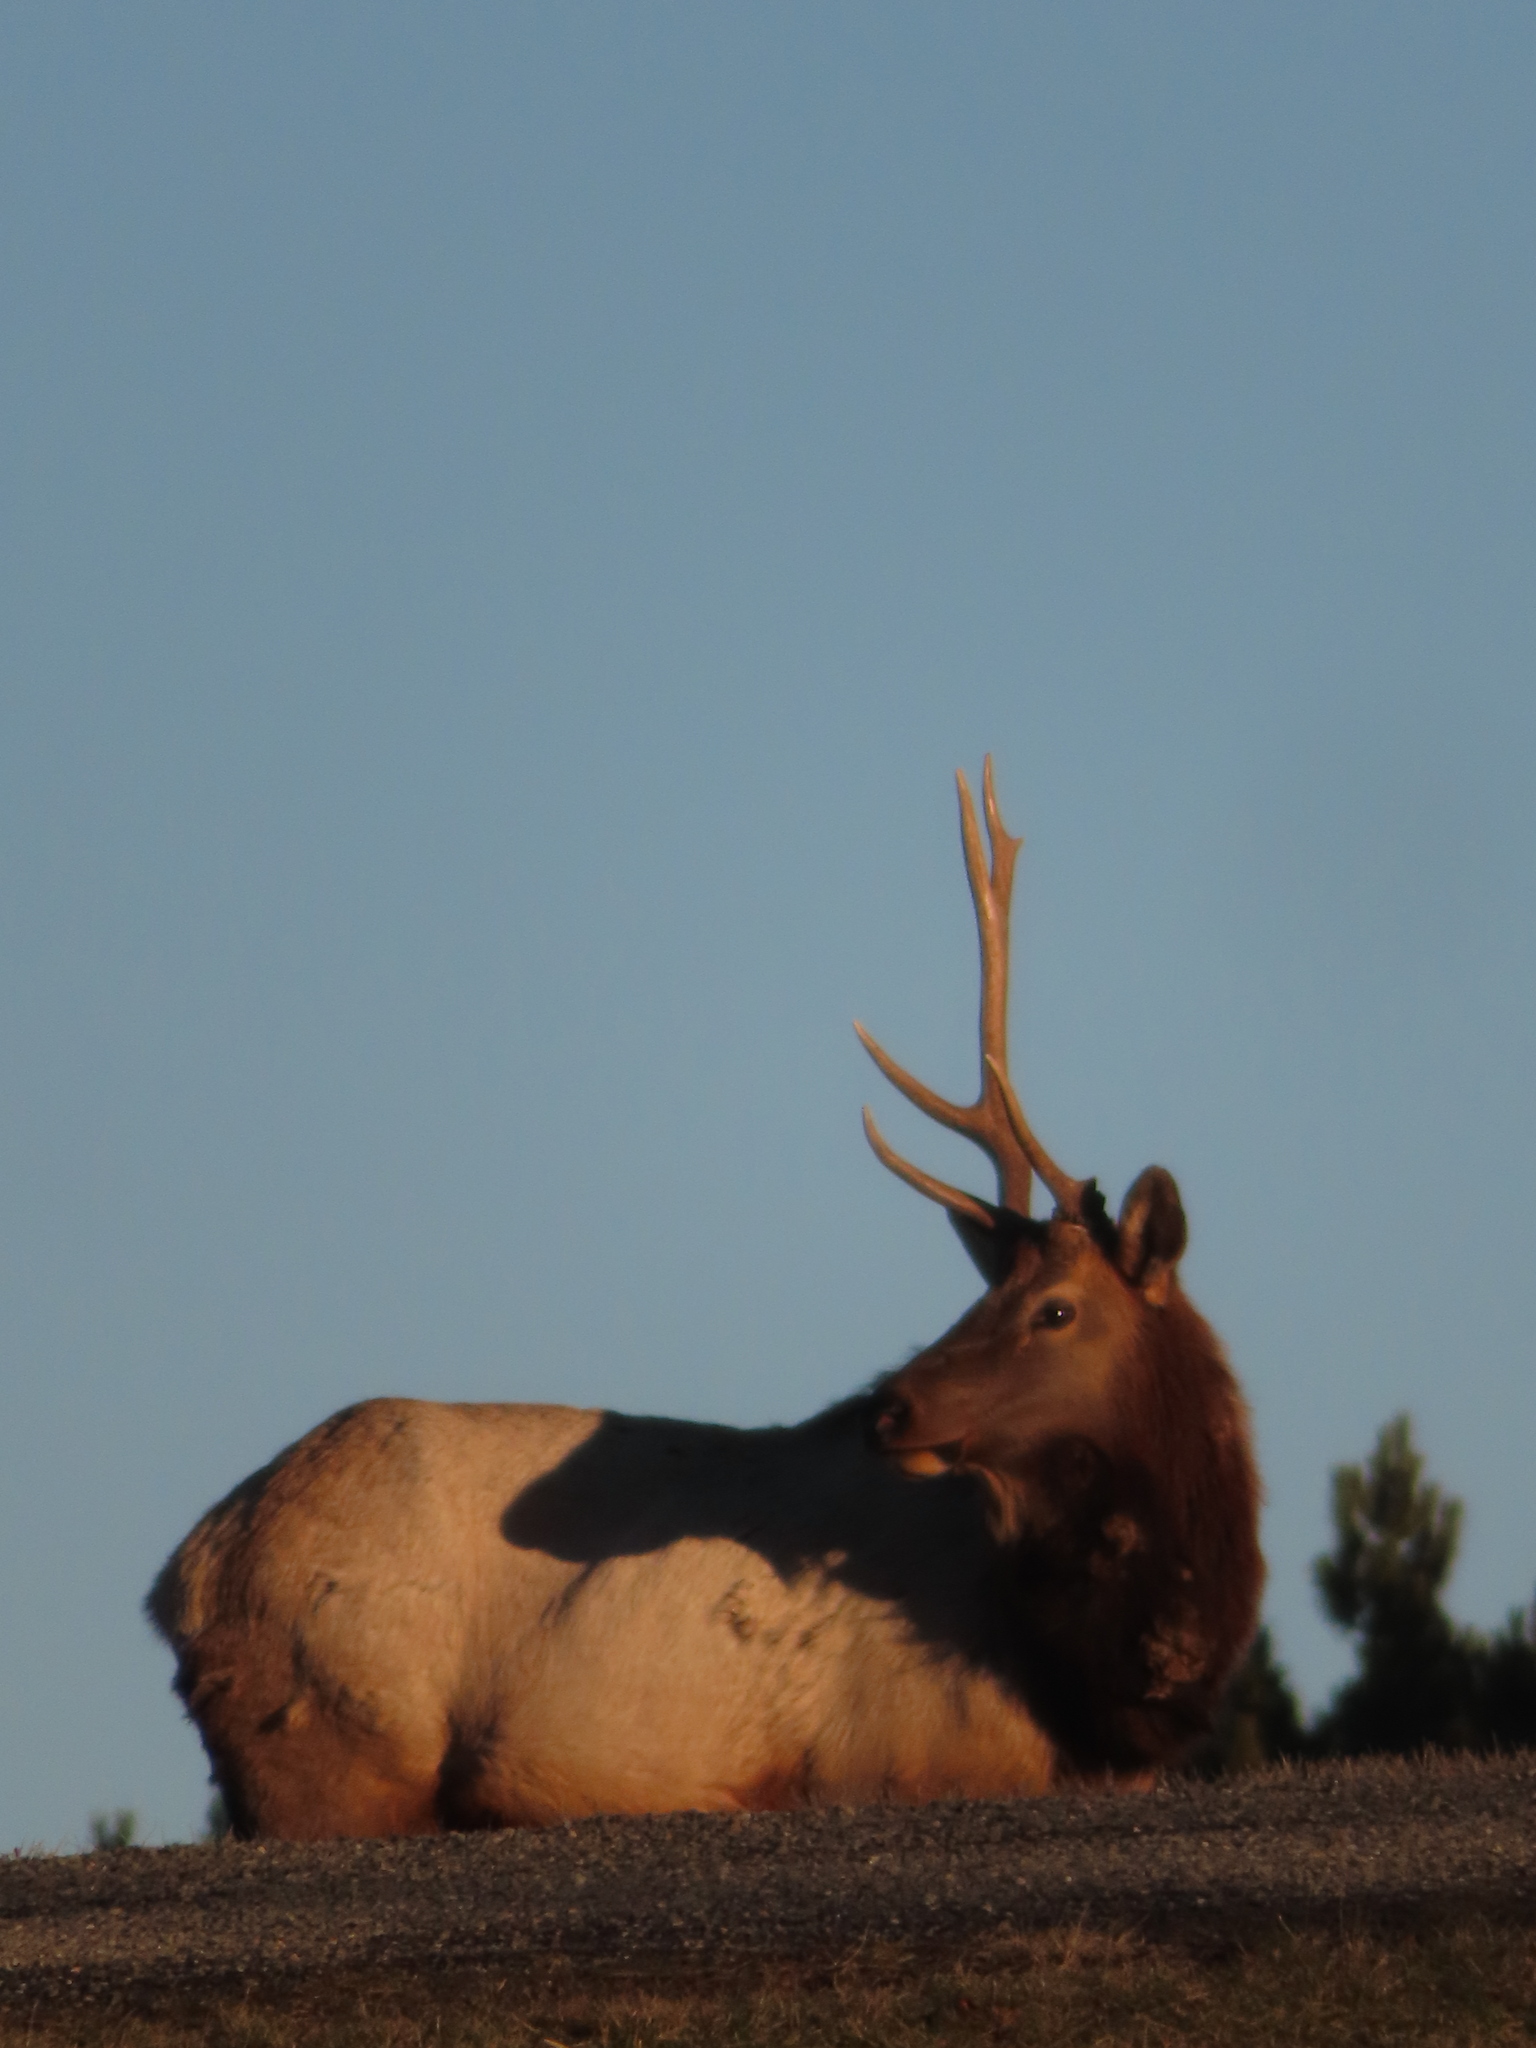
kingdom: Animalia
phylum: Chordata
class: Mammalia
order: Artiodactyla
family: Cervidae
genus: Cervus
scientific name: Cervus elaphus
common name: Red deer
